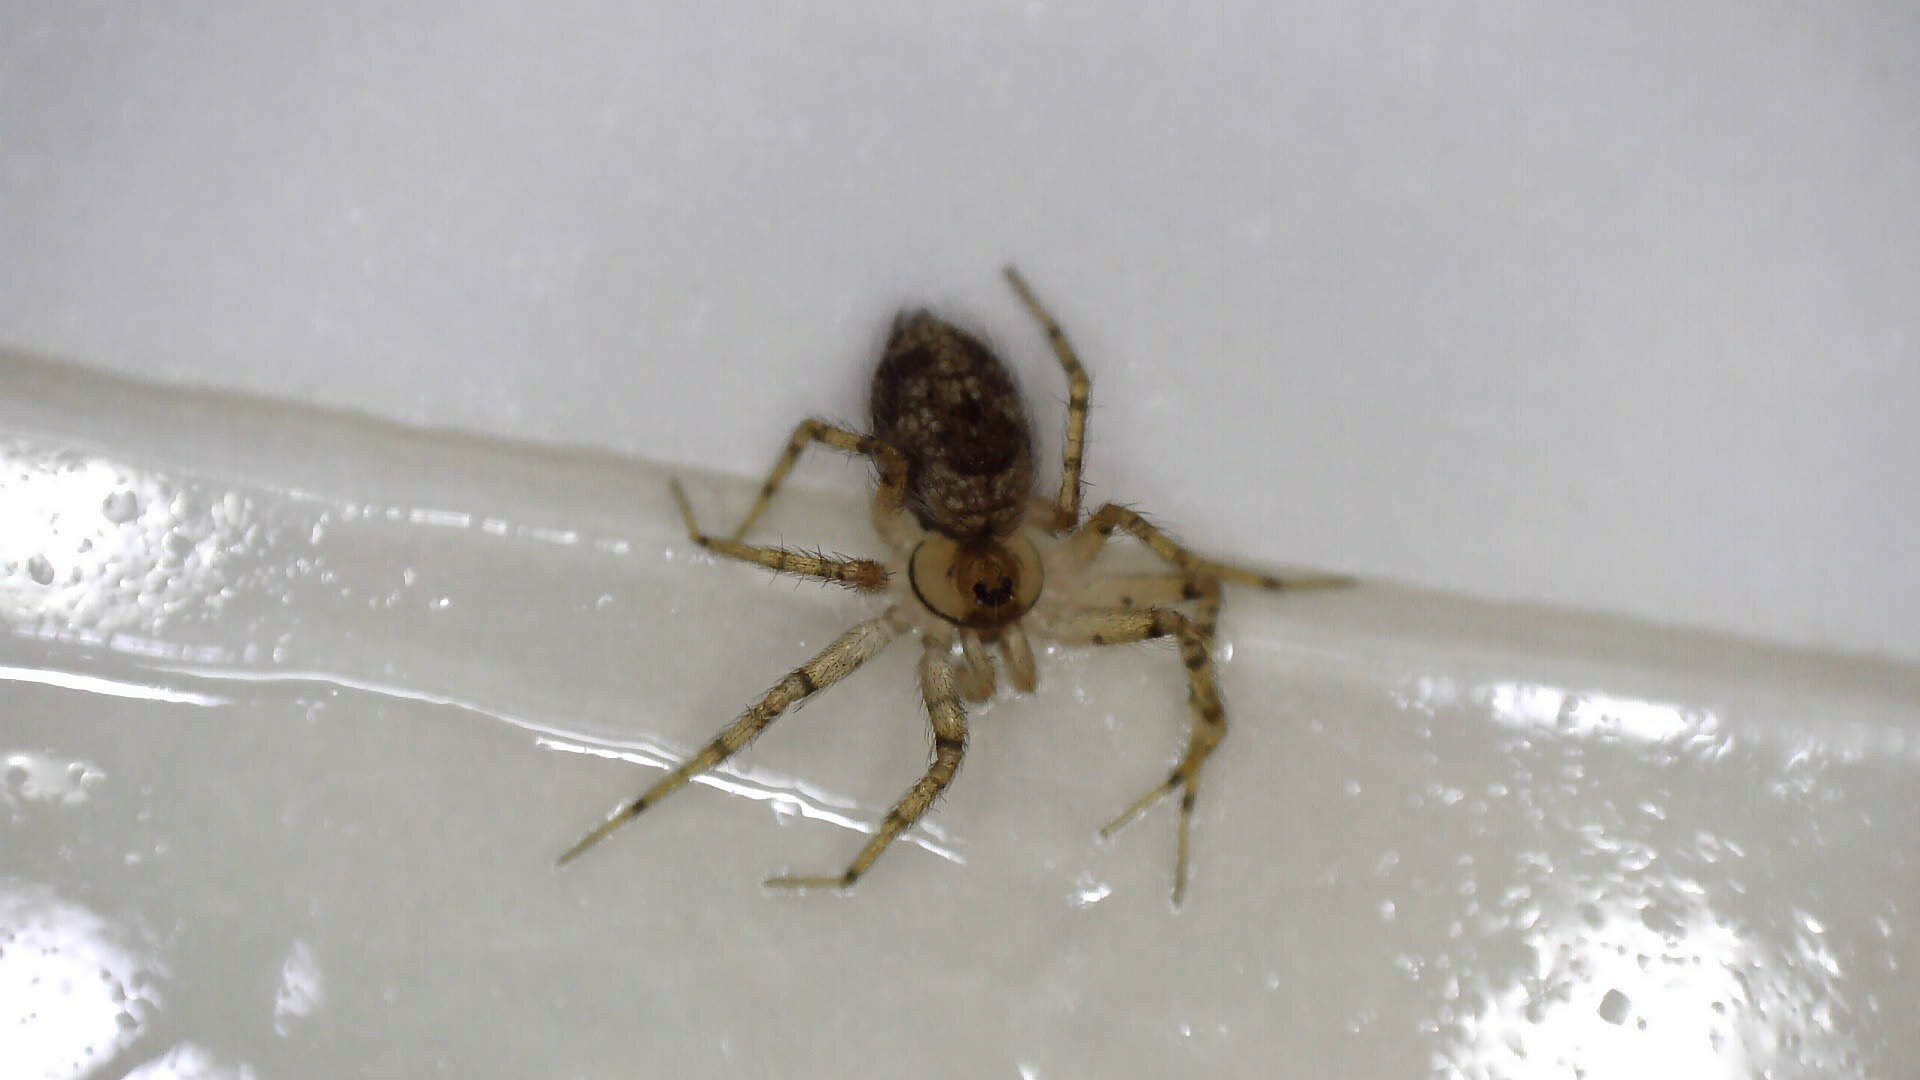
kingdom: Animalia
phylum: Arthropoda
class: Arachnida
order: Araneae
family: Oecobiidae
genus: Oecobius
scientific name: Oecobius
